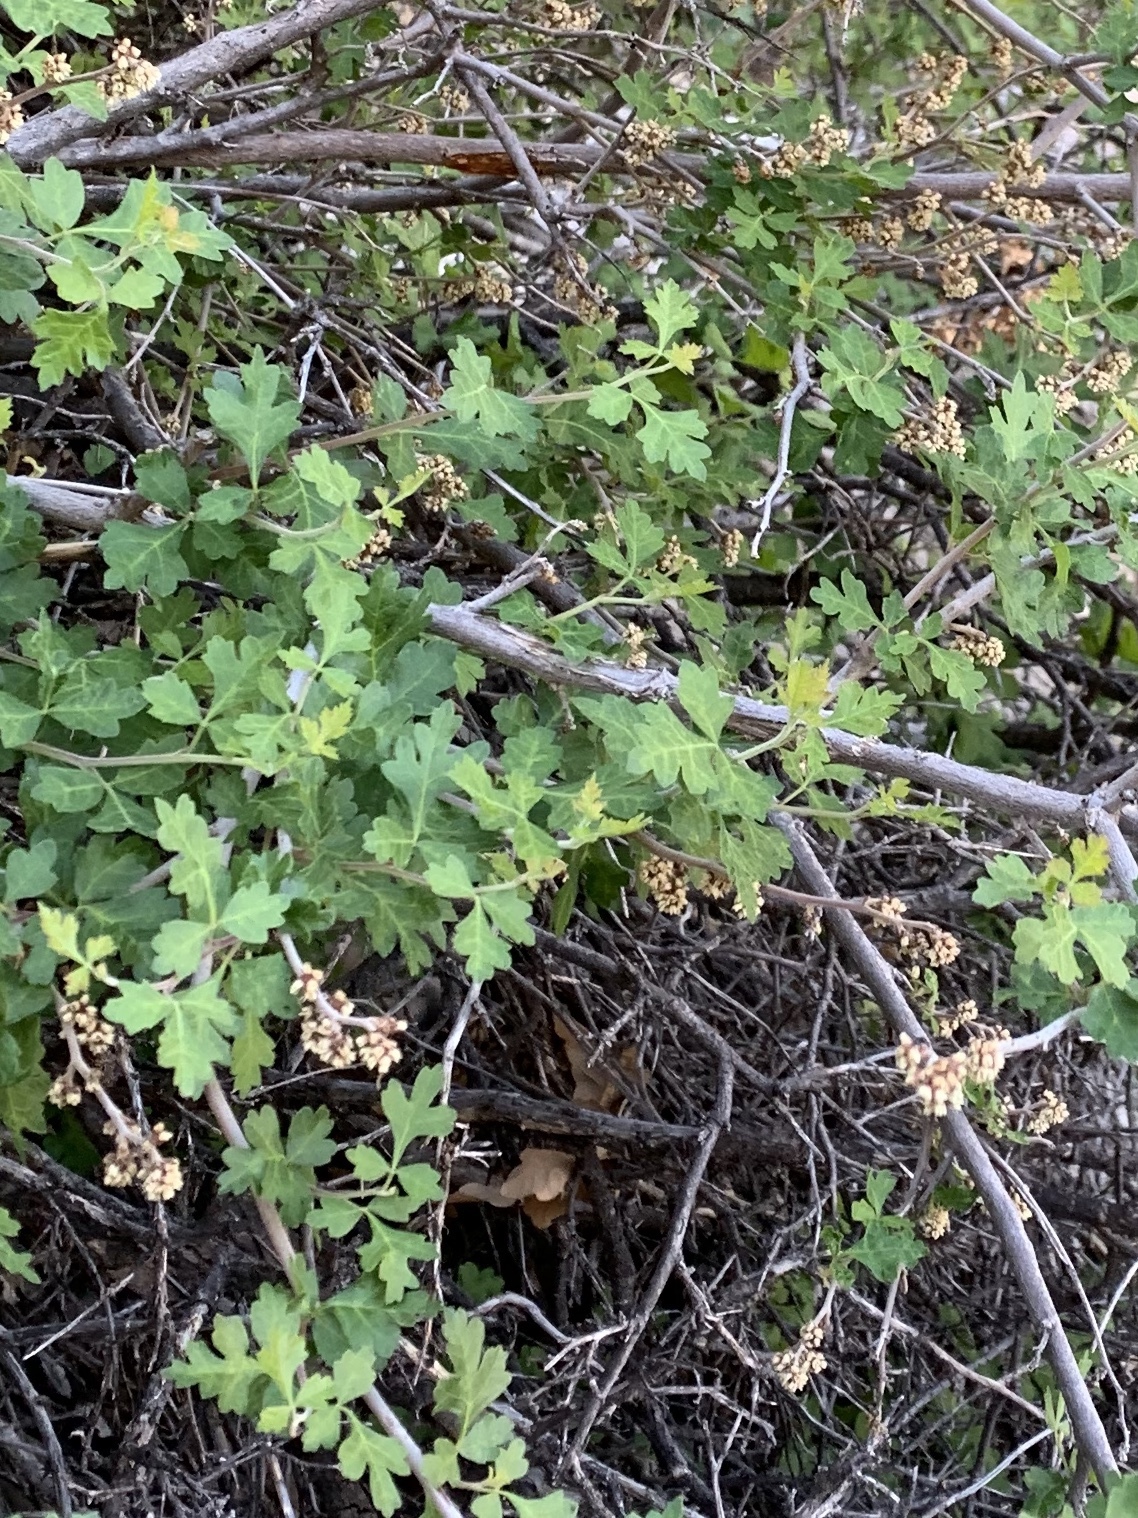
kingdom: Plantae
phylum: Tracheophyta
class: Magnoliopsida
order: Sapindales
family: Anacardiaceae
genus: Rhus
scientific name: Rhus aromatica
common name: Aromatic sumac
